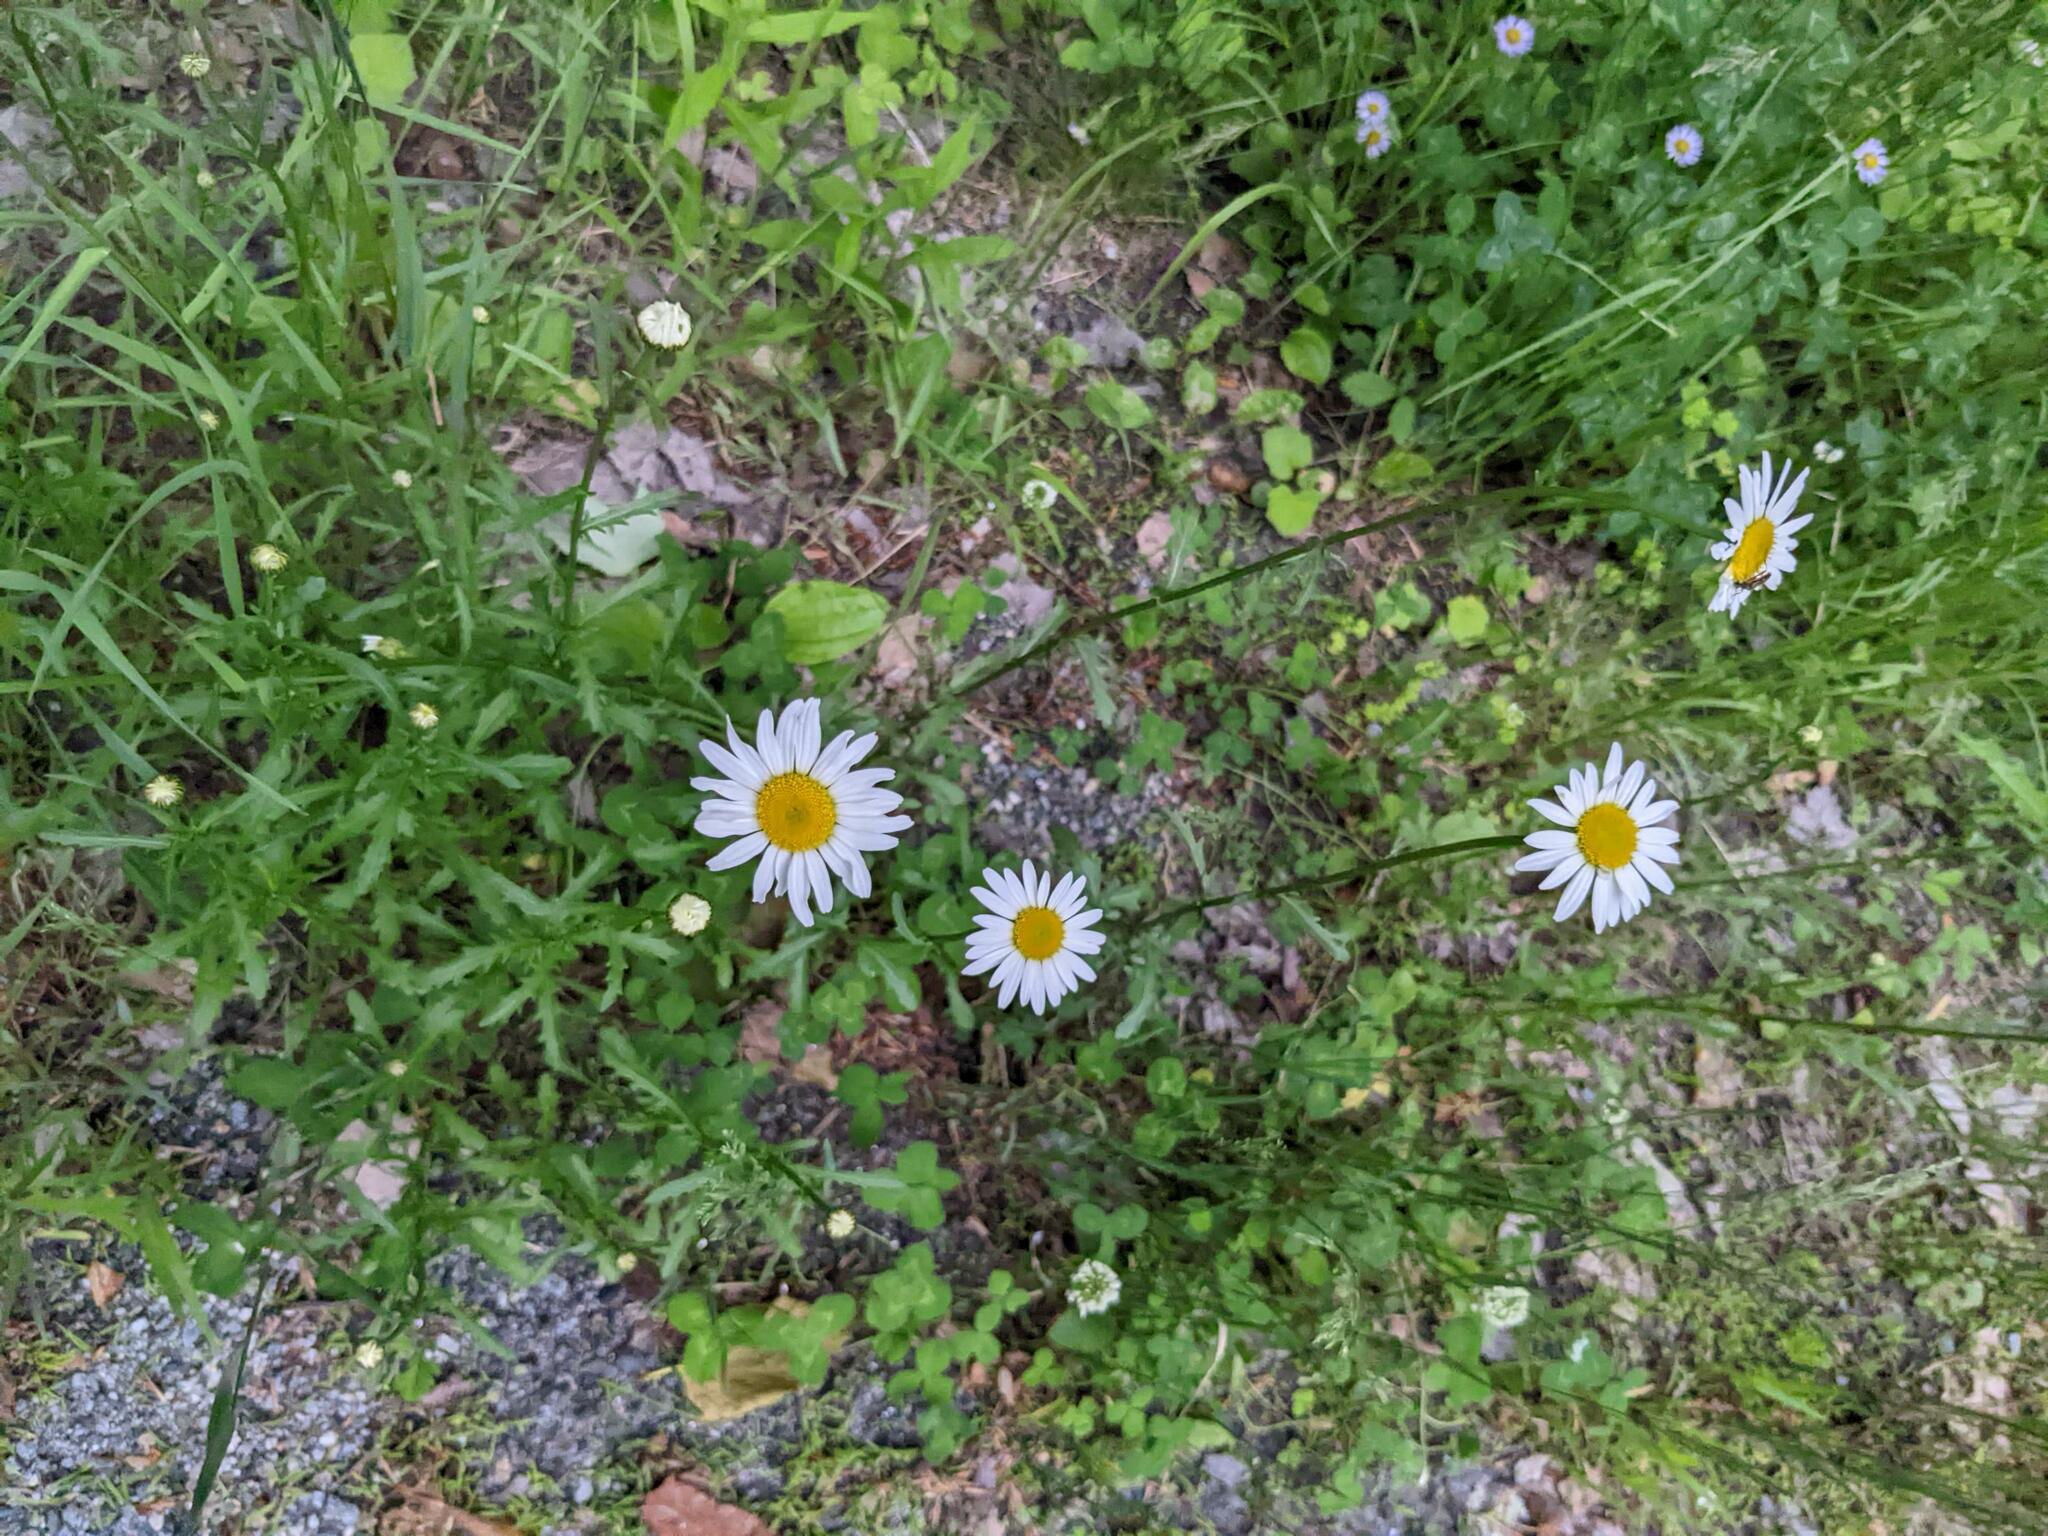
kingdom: Plantae
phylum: Tracheophyta
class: Magnoliopsida
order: Asterales
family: Asteraceae
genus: Leucanthemum
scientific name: Leucanthemum vulgare
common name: Oxeye daisy
